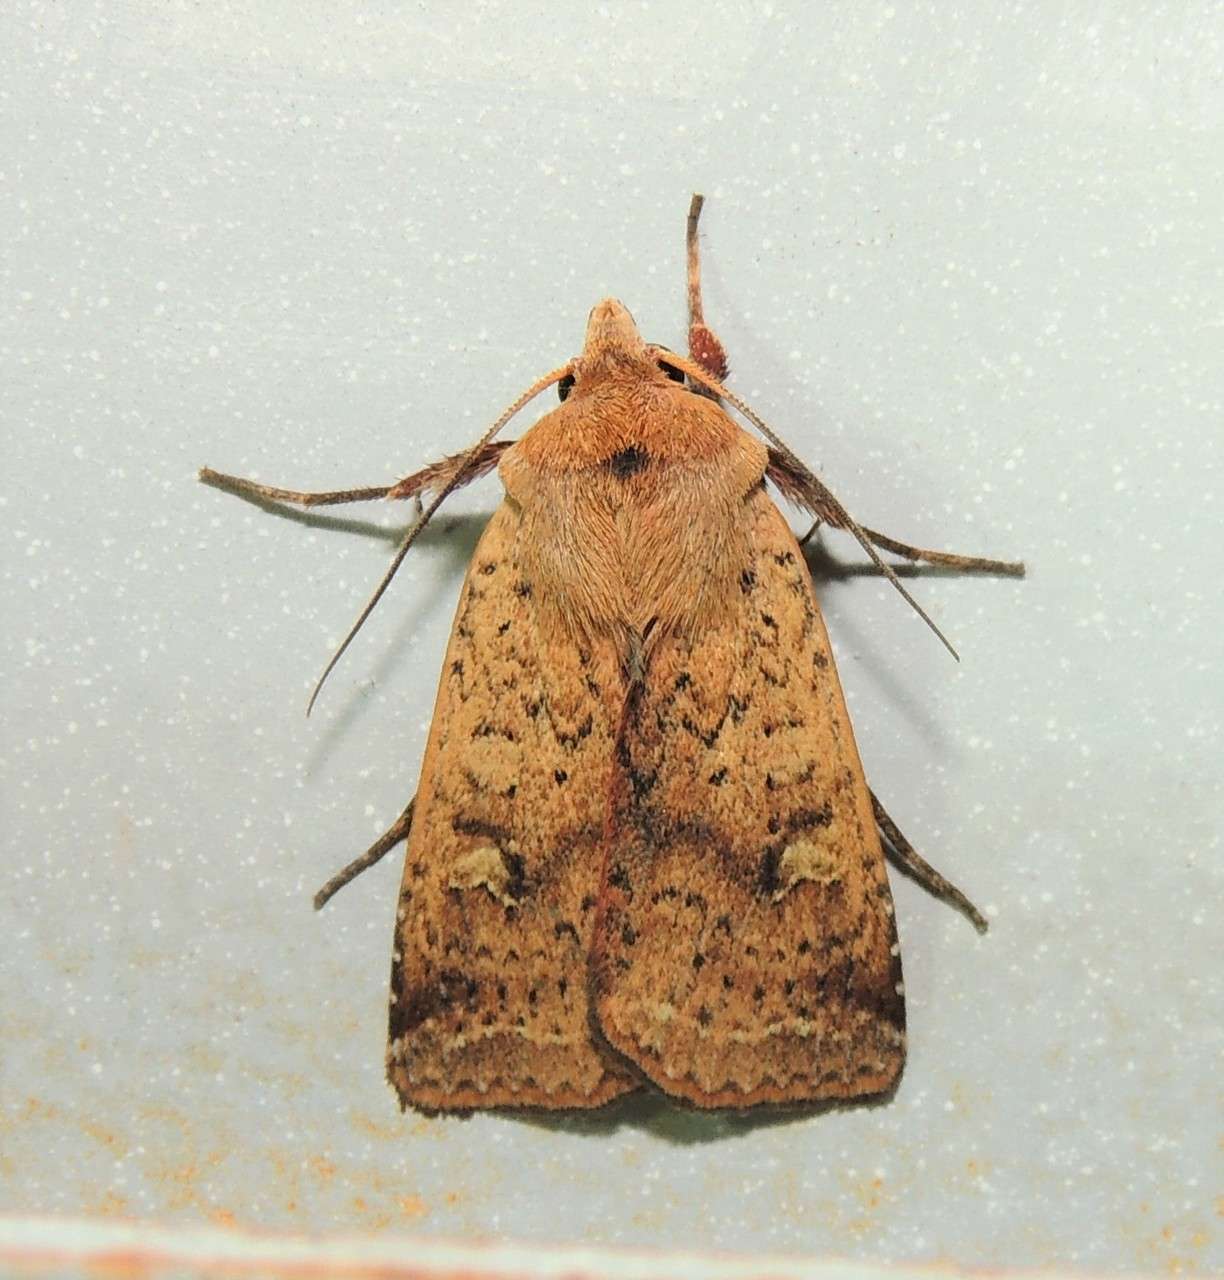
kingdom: Animalia
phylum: Arthropoda
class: Insecta
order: Lepidoptera
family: Noctuidae
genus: Diarsia
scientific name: Diarsia intermixta
